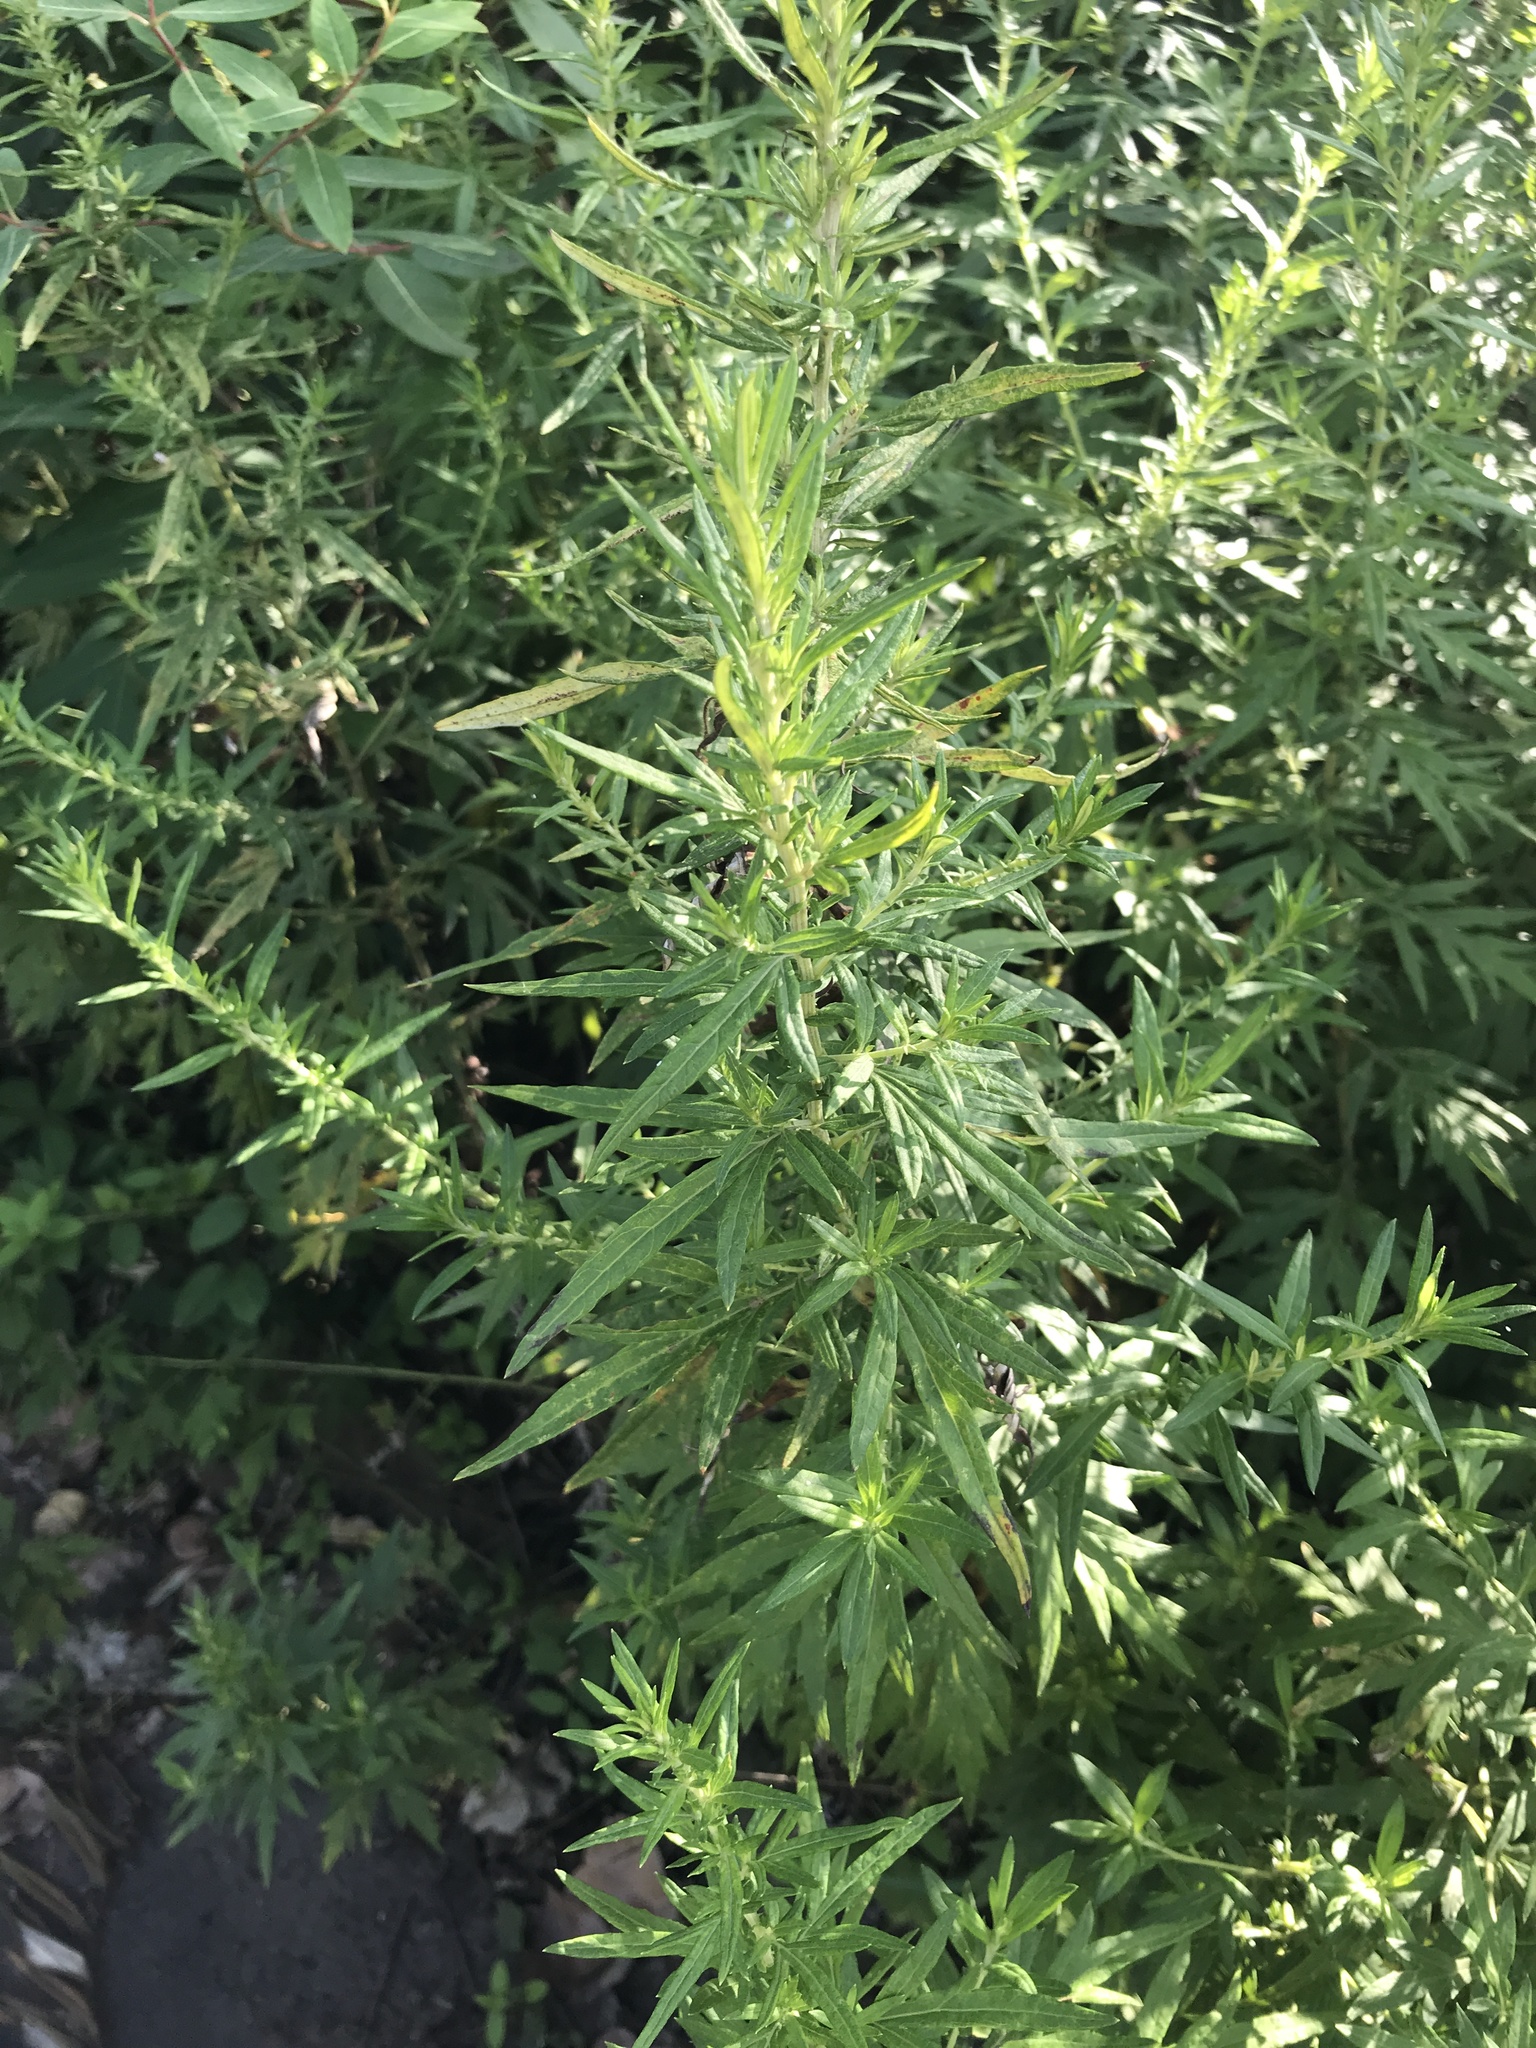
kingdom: Plantae
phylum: Tracheophyta
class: Magnoliopsida
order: Asterales
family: Asteraceae
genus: Artemisia
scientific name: Artemisia vulgaris
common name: Mugwort
